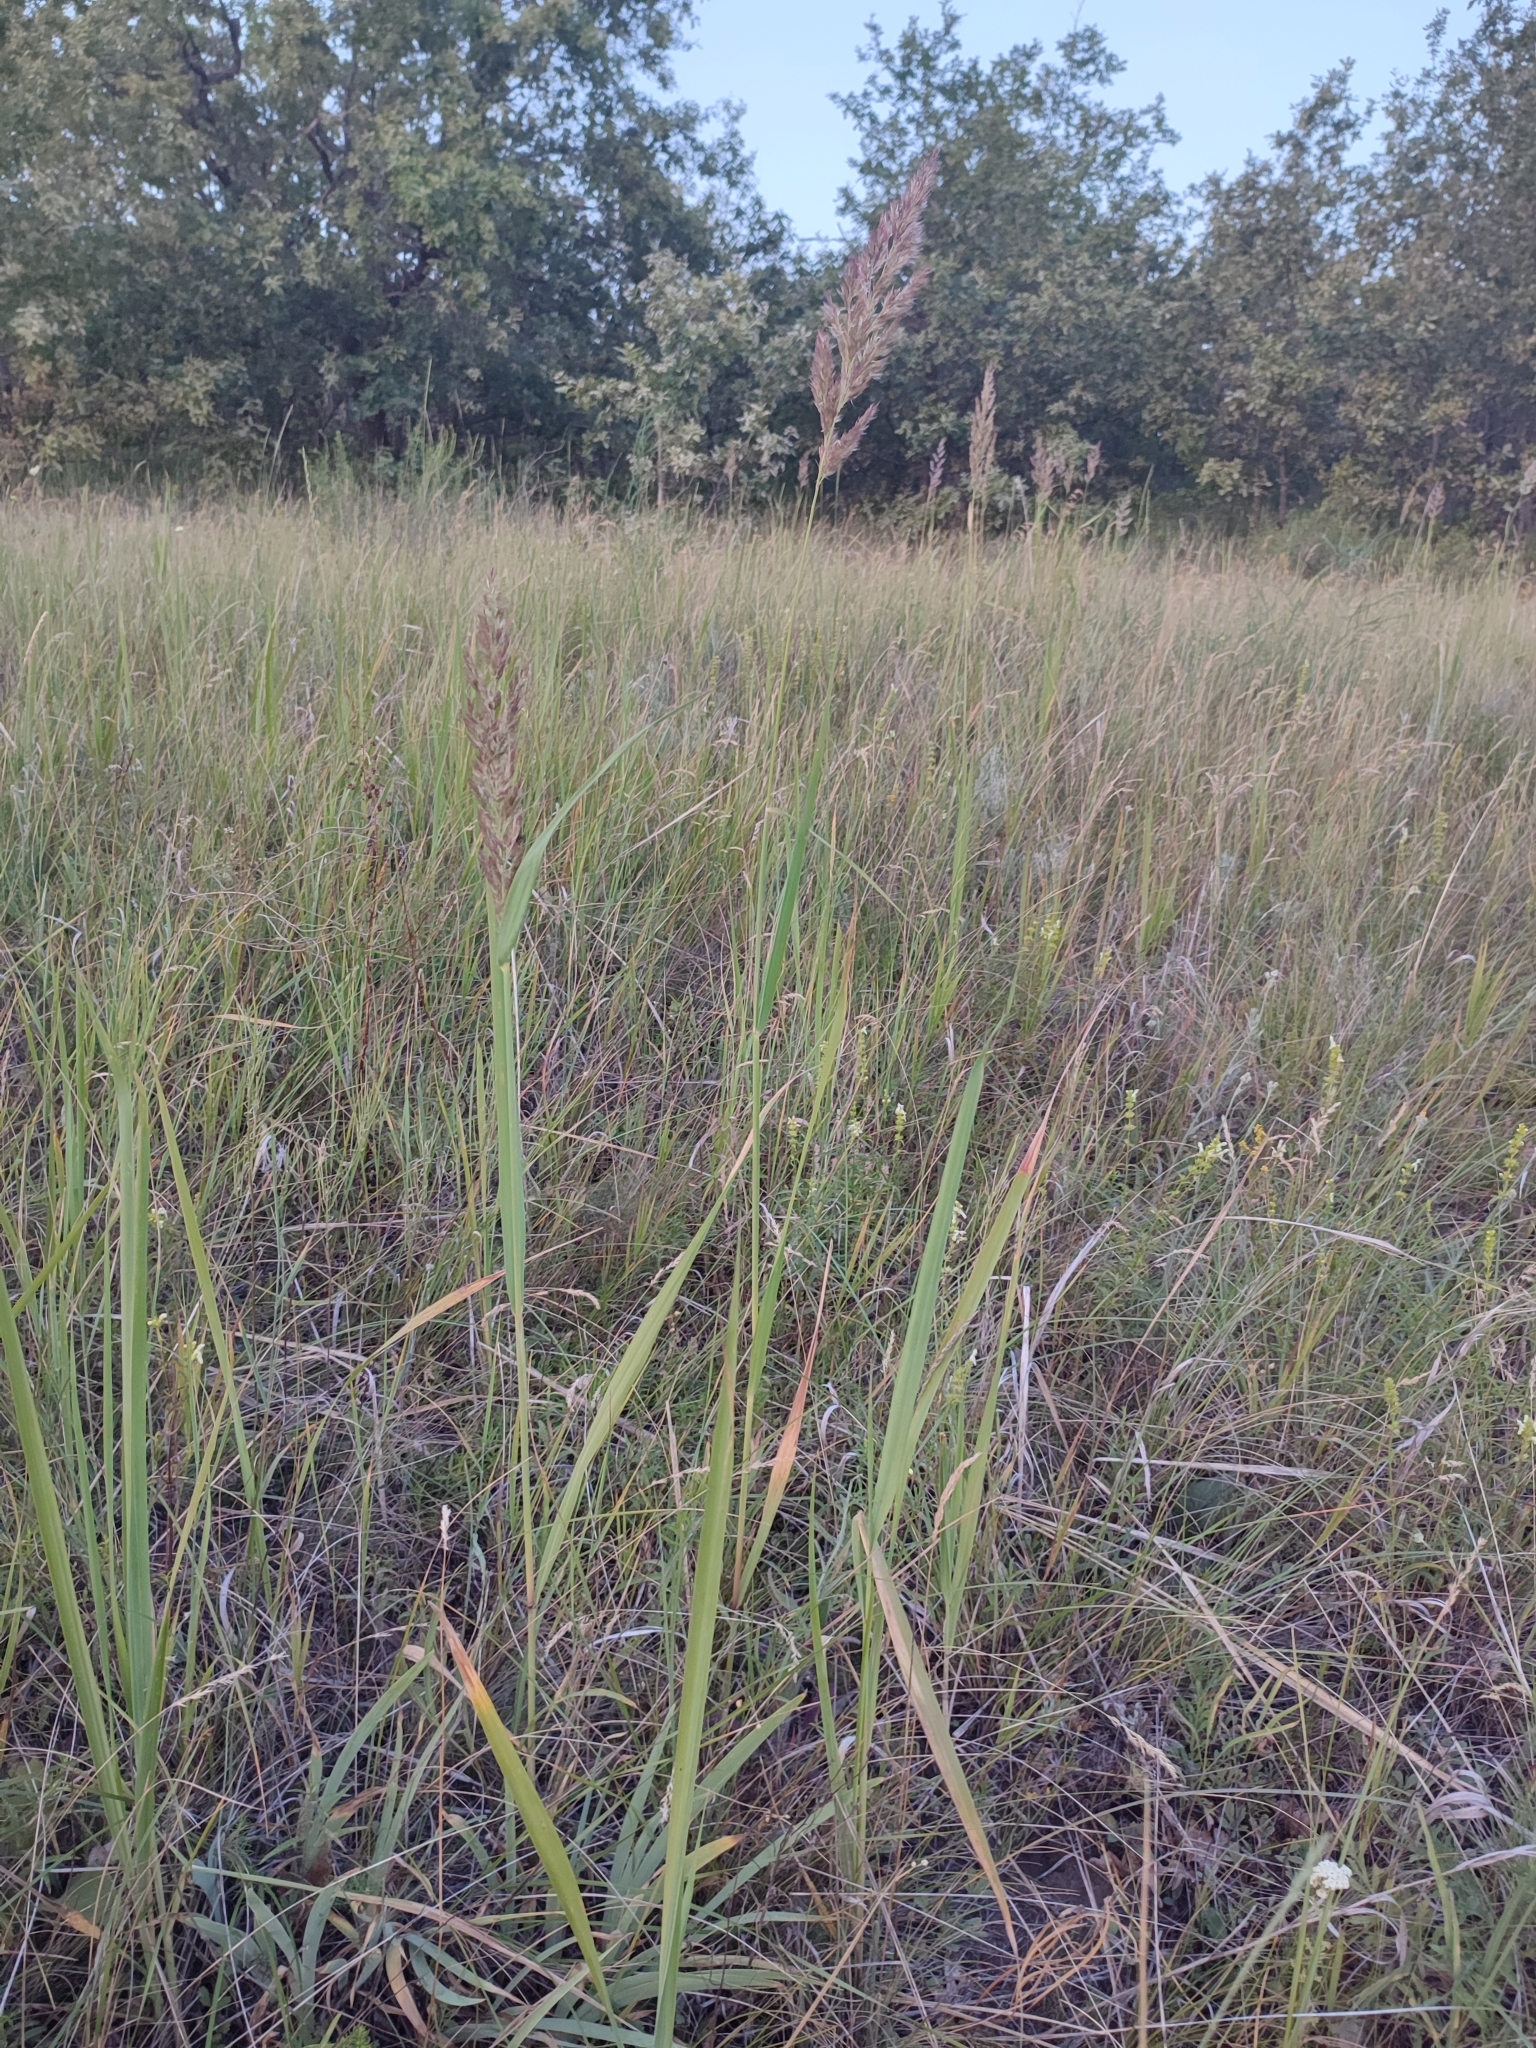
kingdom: Plantae
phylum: Tracheophyta
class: Liliopsida
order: Poales
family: Poaceae
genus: Calamagrostis
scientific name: Calamagrostis epigejos
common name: Wood small-reed
